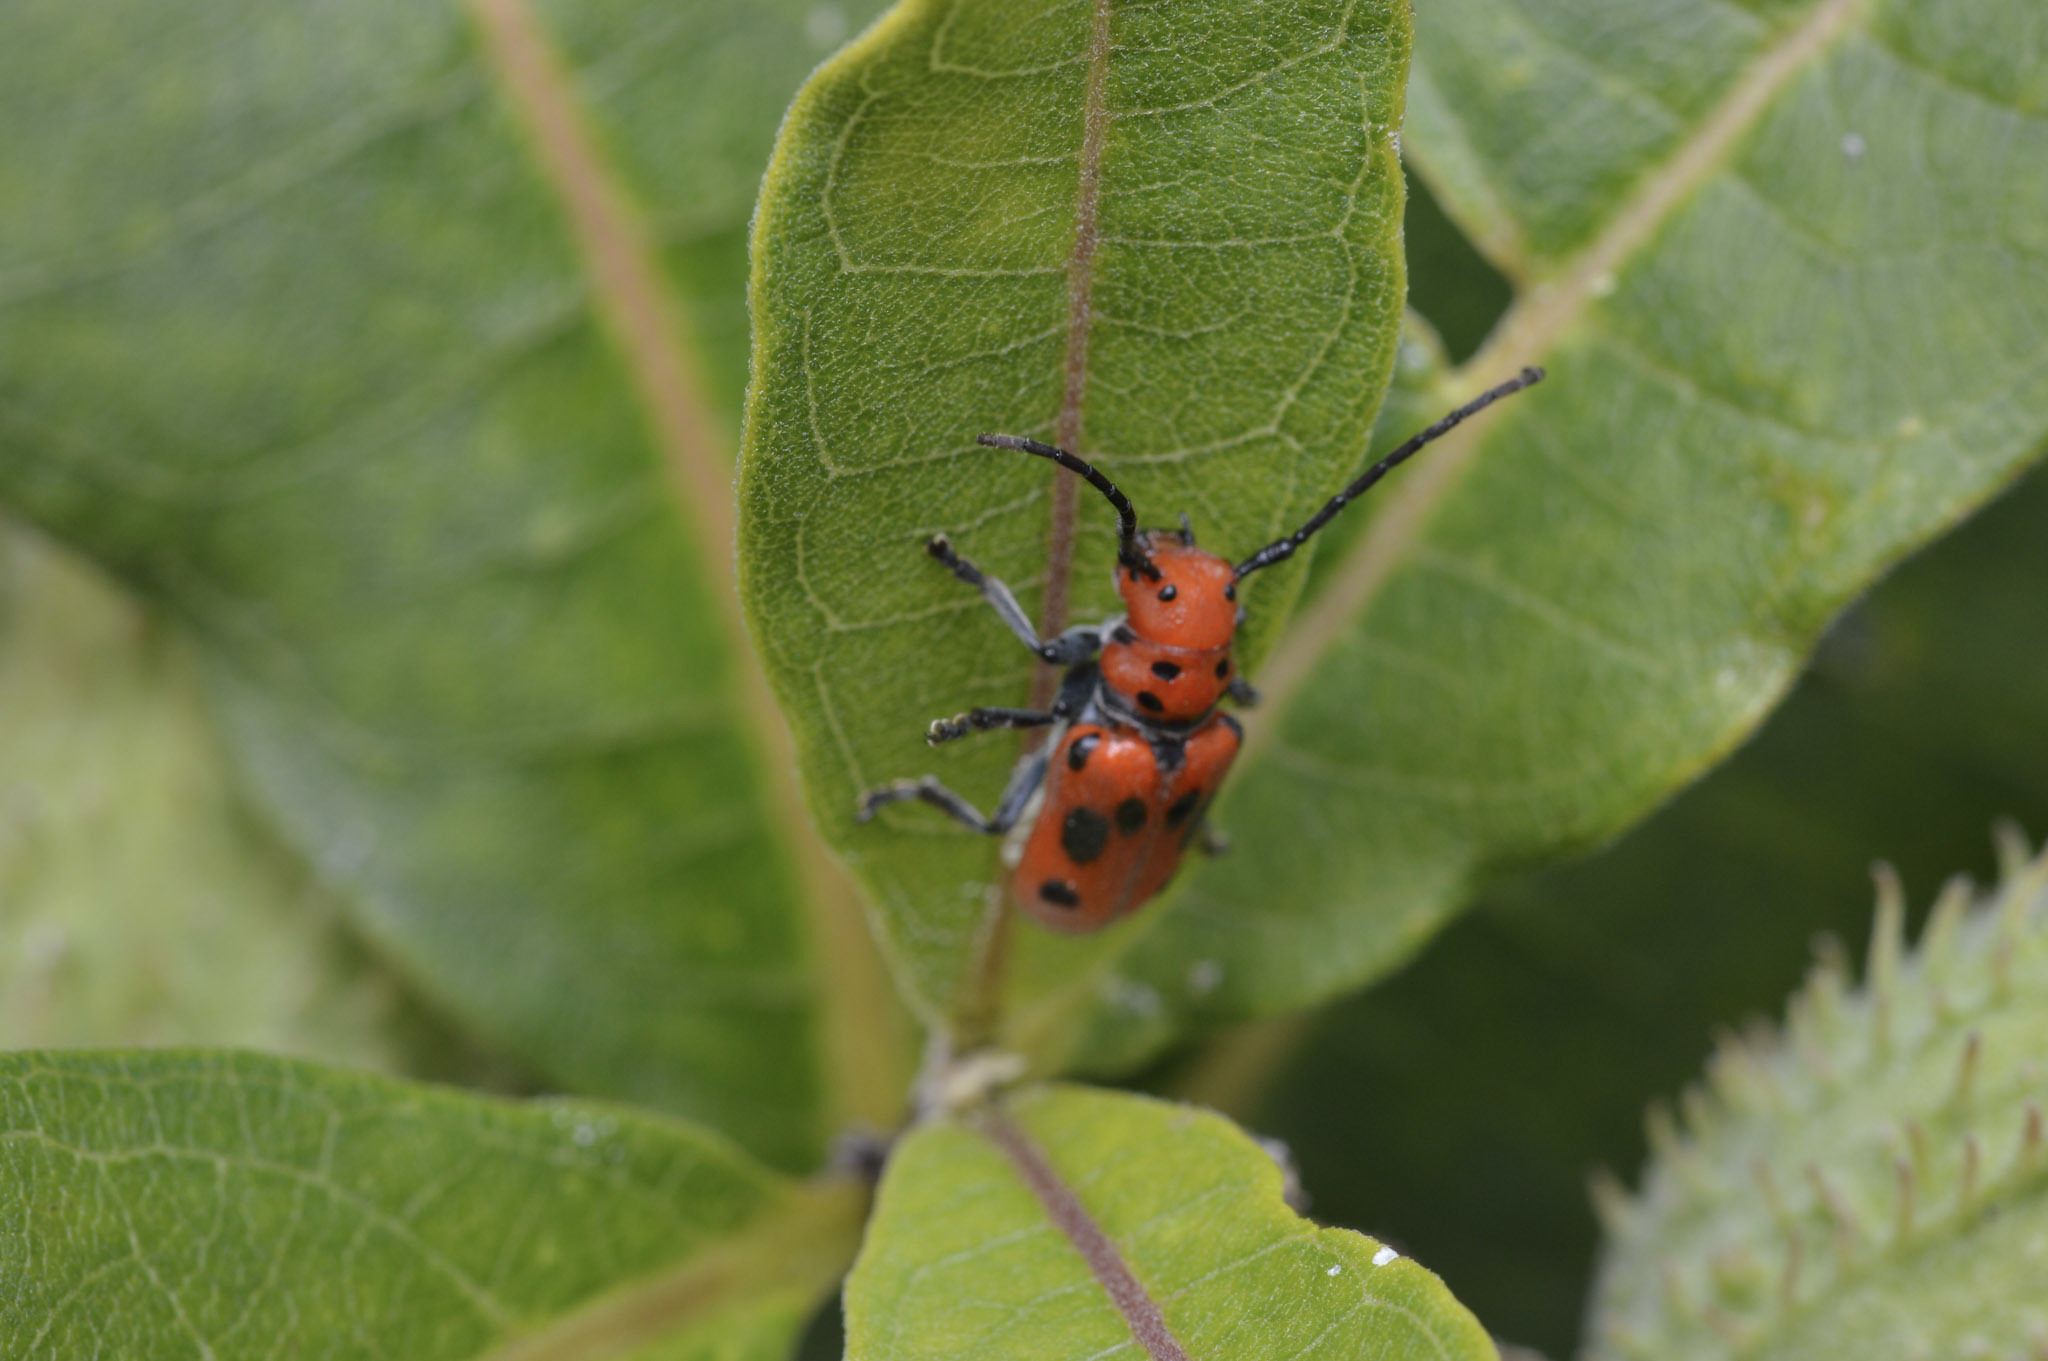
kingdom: Animalia
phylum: Arthropoda
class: Insecta
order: Coleoptera
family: Cerambycidae
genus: Tetraopes
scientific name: Tetraopes tetrophthalmus
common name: Red milkweed beetle
